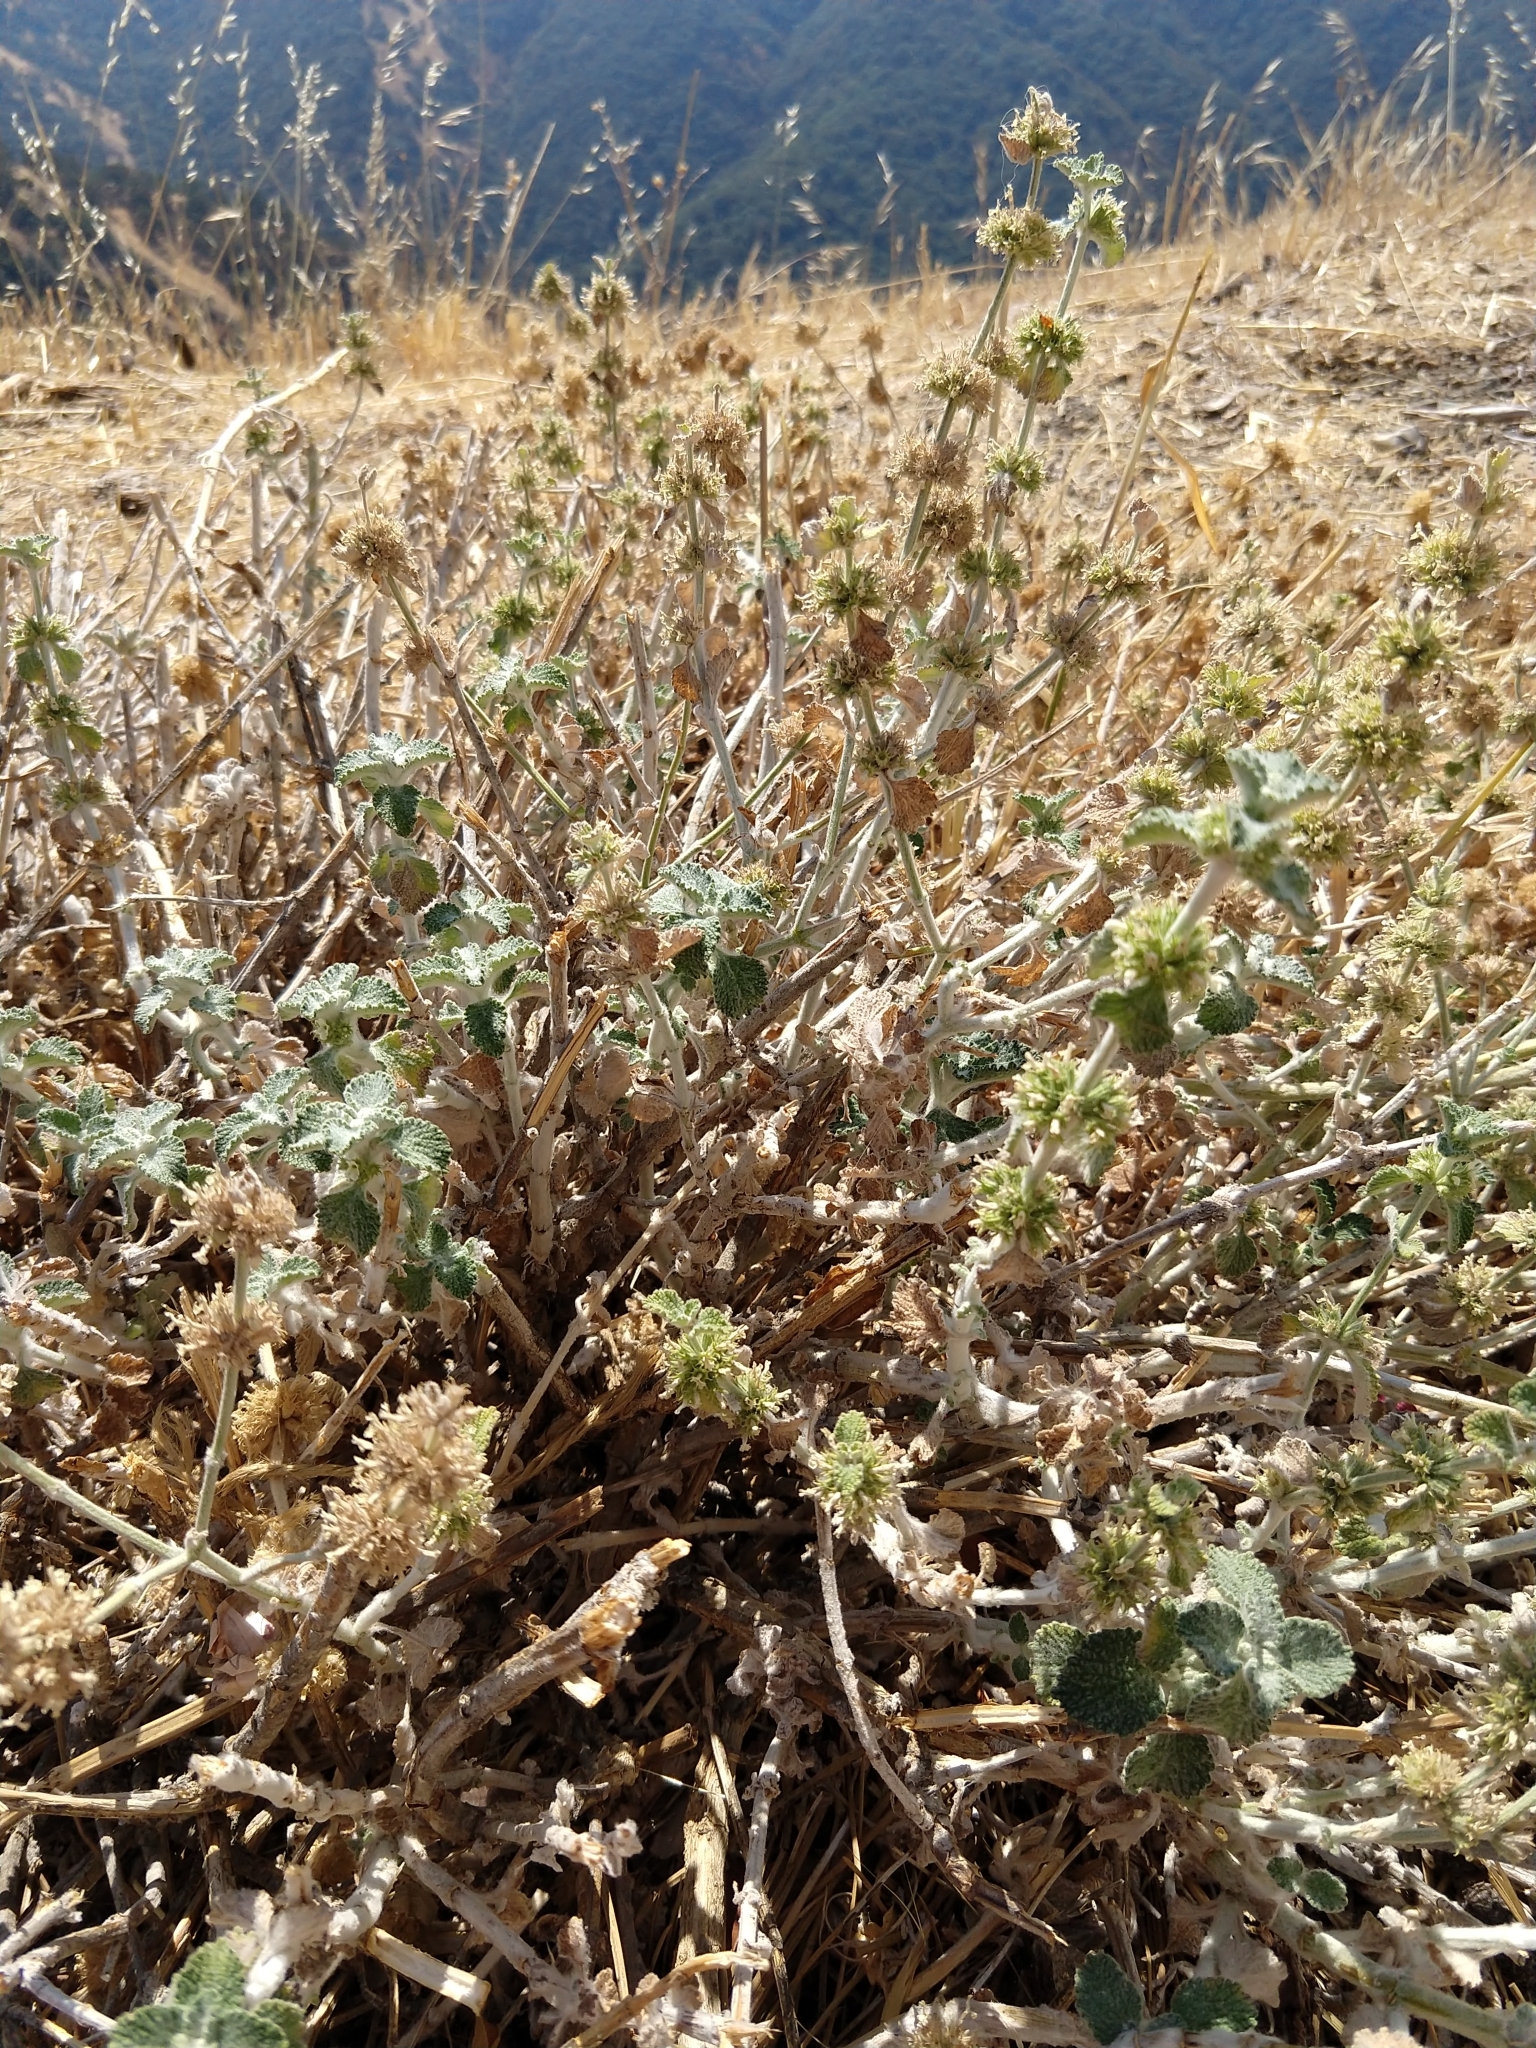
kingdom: Plantae
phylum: Tracheophyta
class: Magnoliopsida
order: Lamiales
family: Lamiaceae
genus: Marrubium
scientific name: Marrubium vulgare
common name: Horehound
